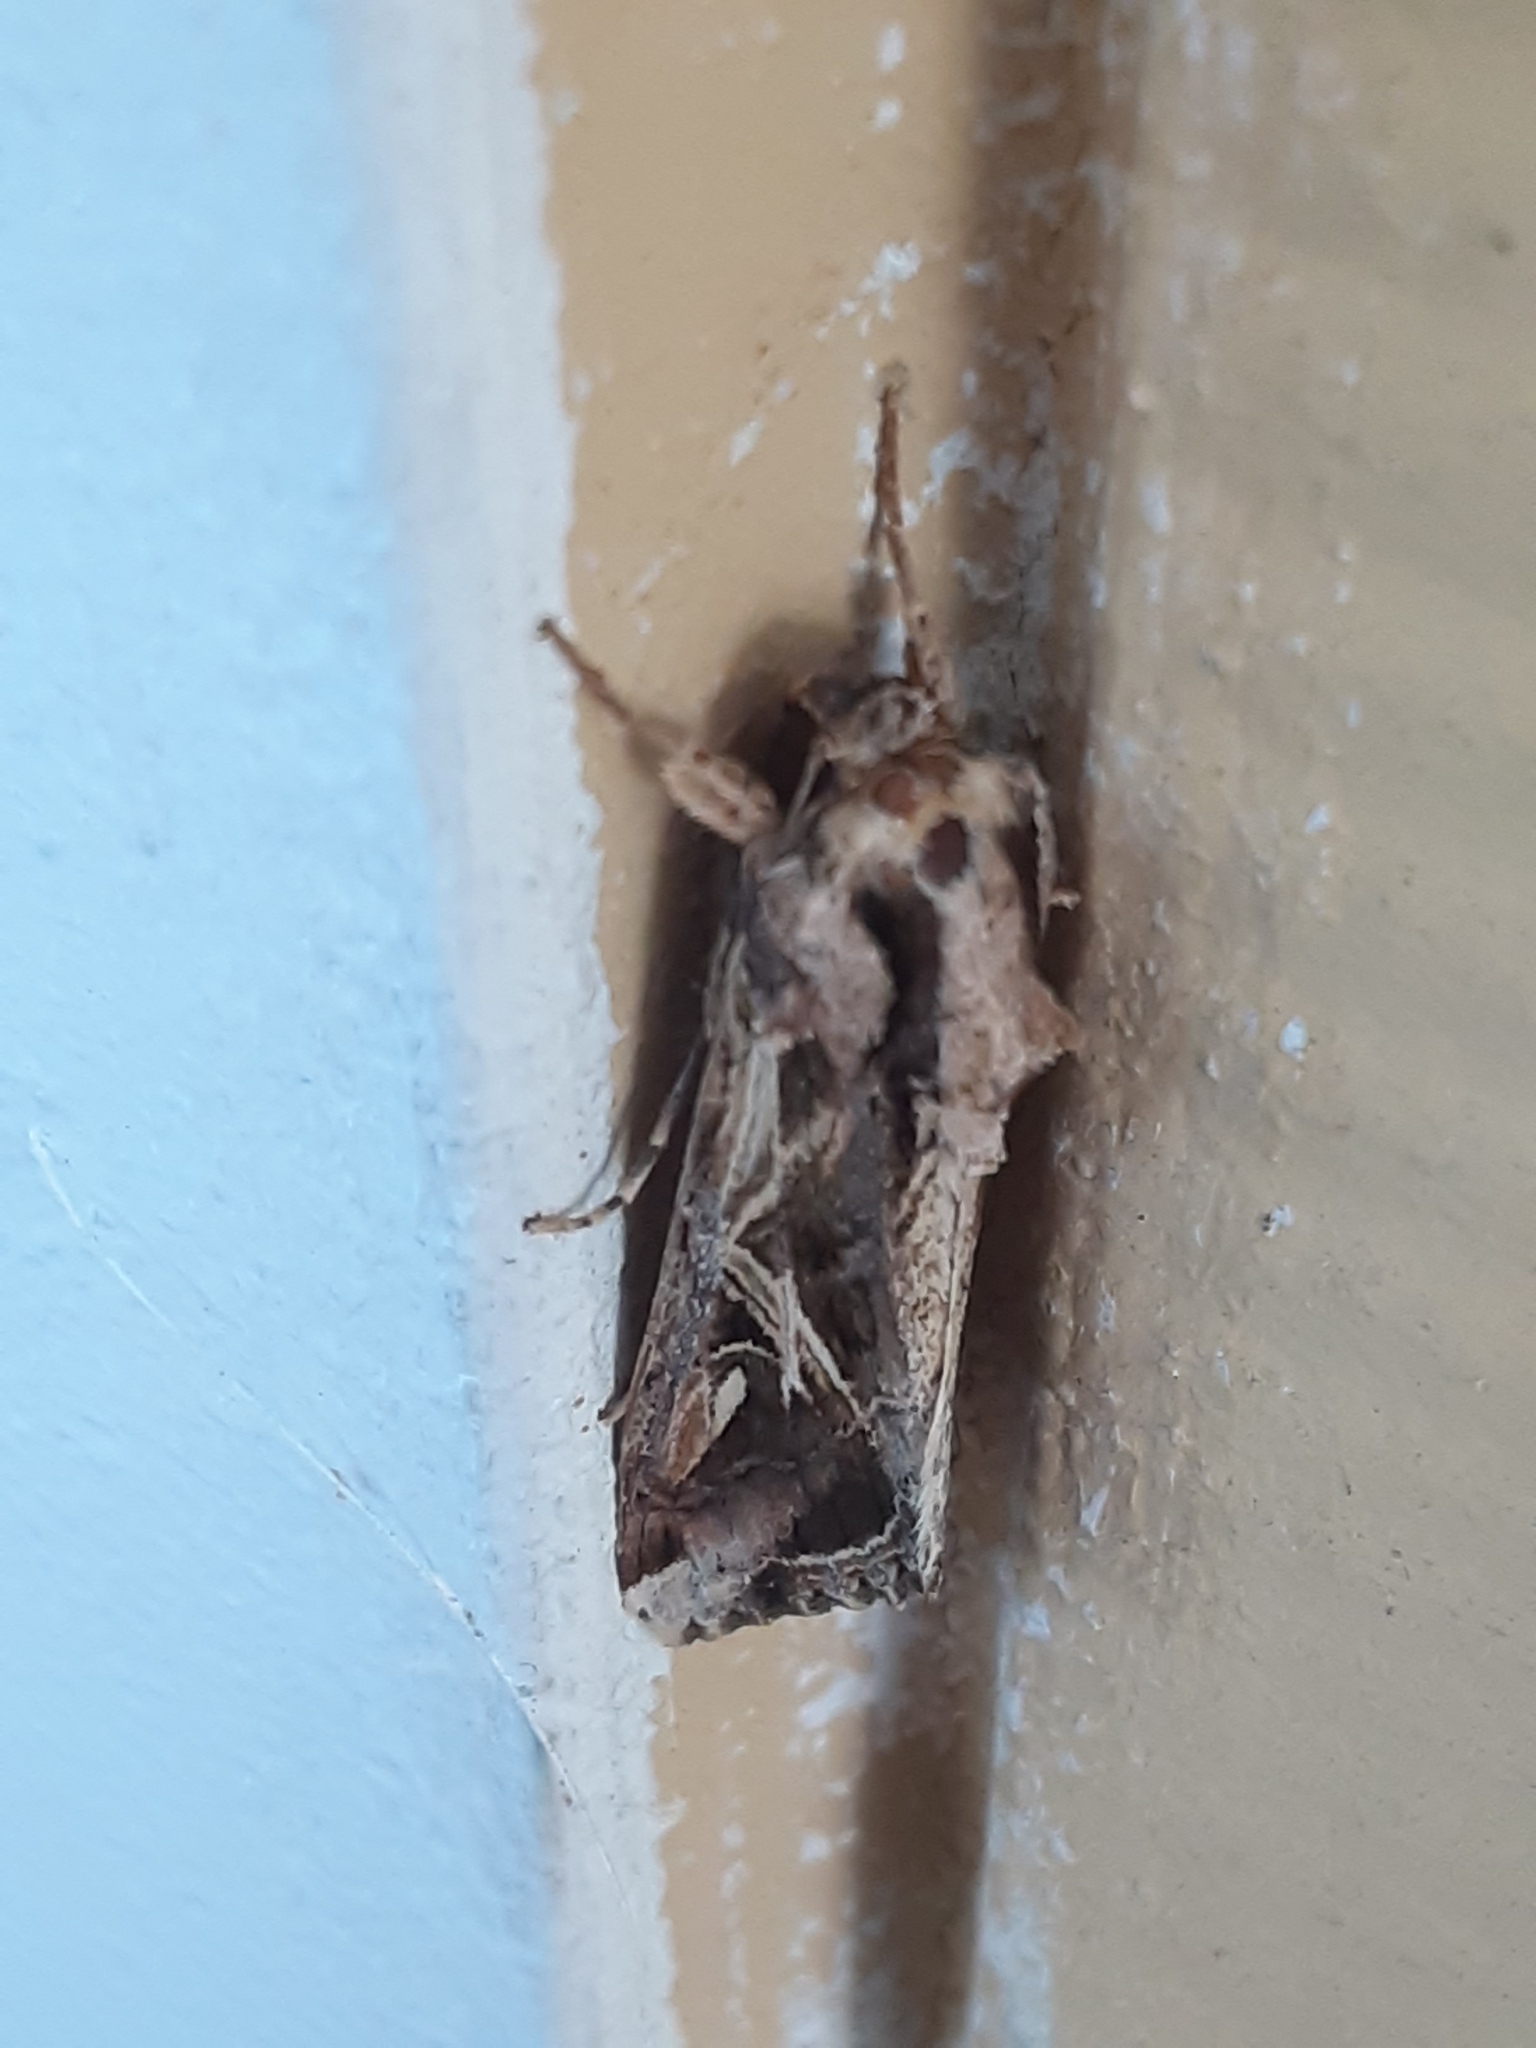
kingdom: Animalia
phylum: Arthropoda
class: Insecta
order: Lepidoptera
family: Noctuidae
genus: Spodoptera
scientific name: Spodoptera dolichos
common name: Sweetpotato armyworm
